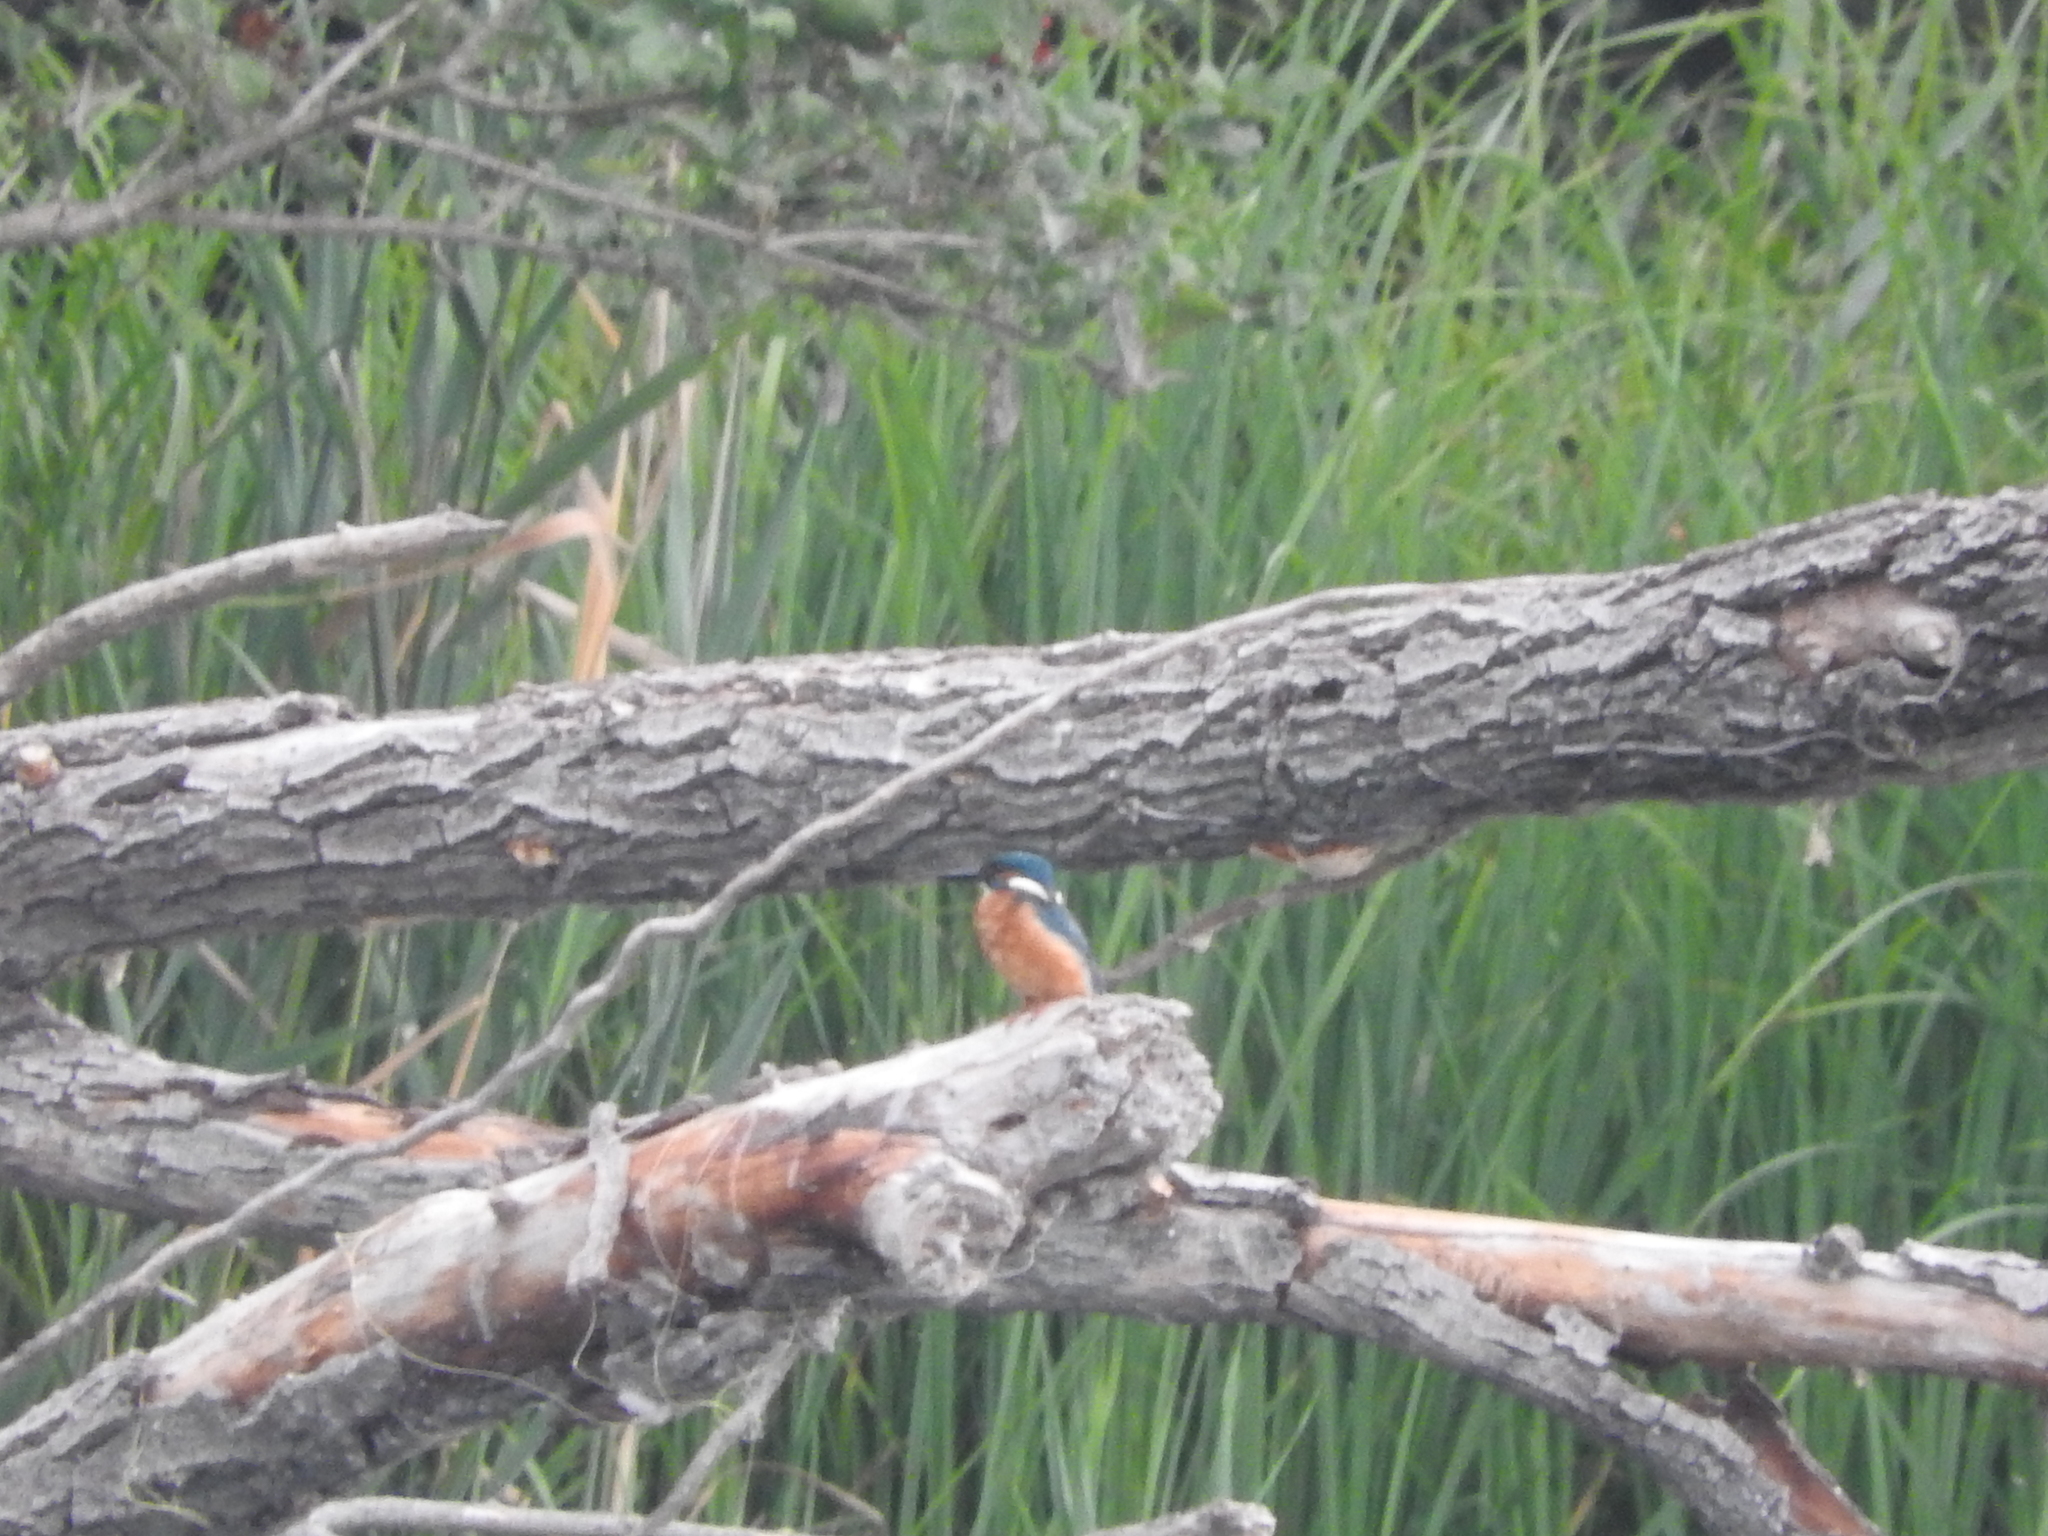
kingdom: Animalia
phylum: Chordata
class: Aves
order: Coraciiformes
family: Alcedinidae
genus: Alcedo
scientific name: Alcedo atthis
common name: Common kingfisher
